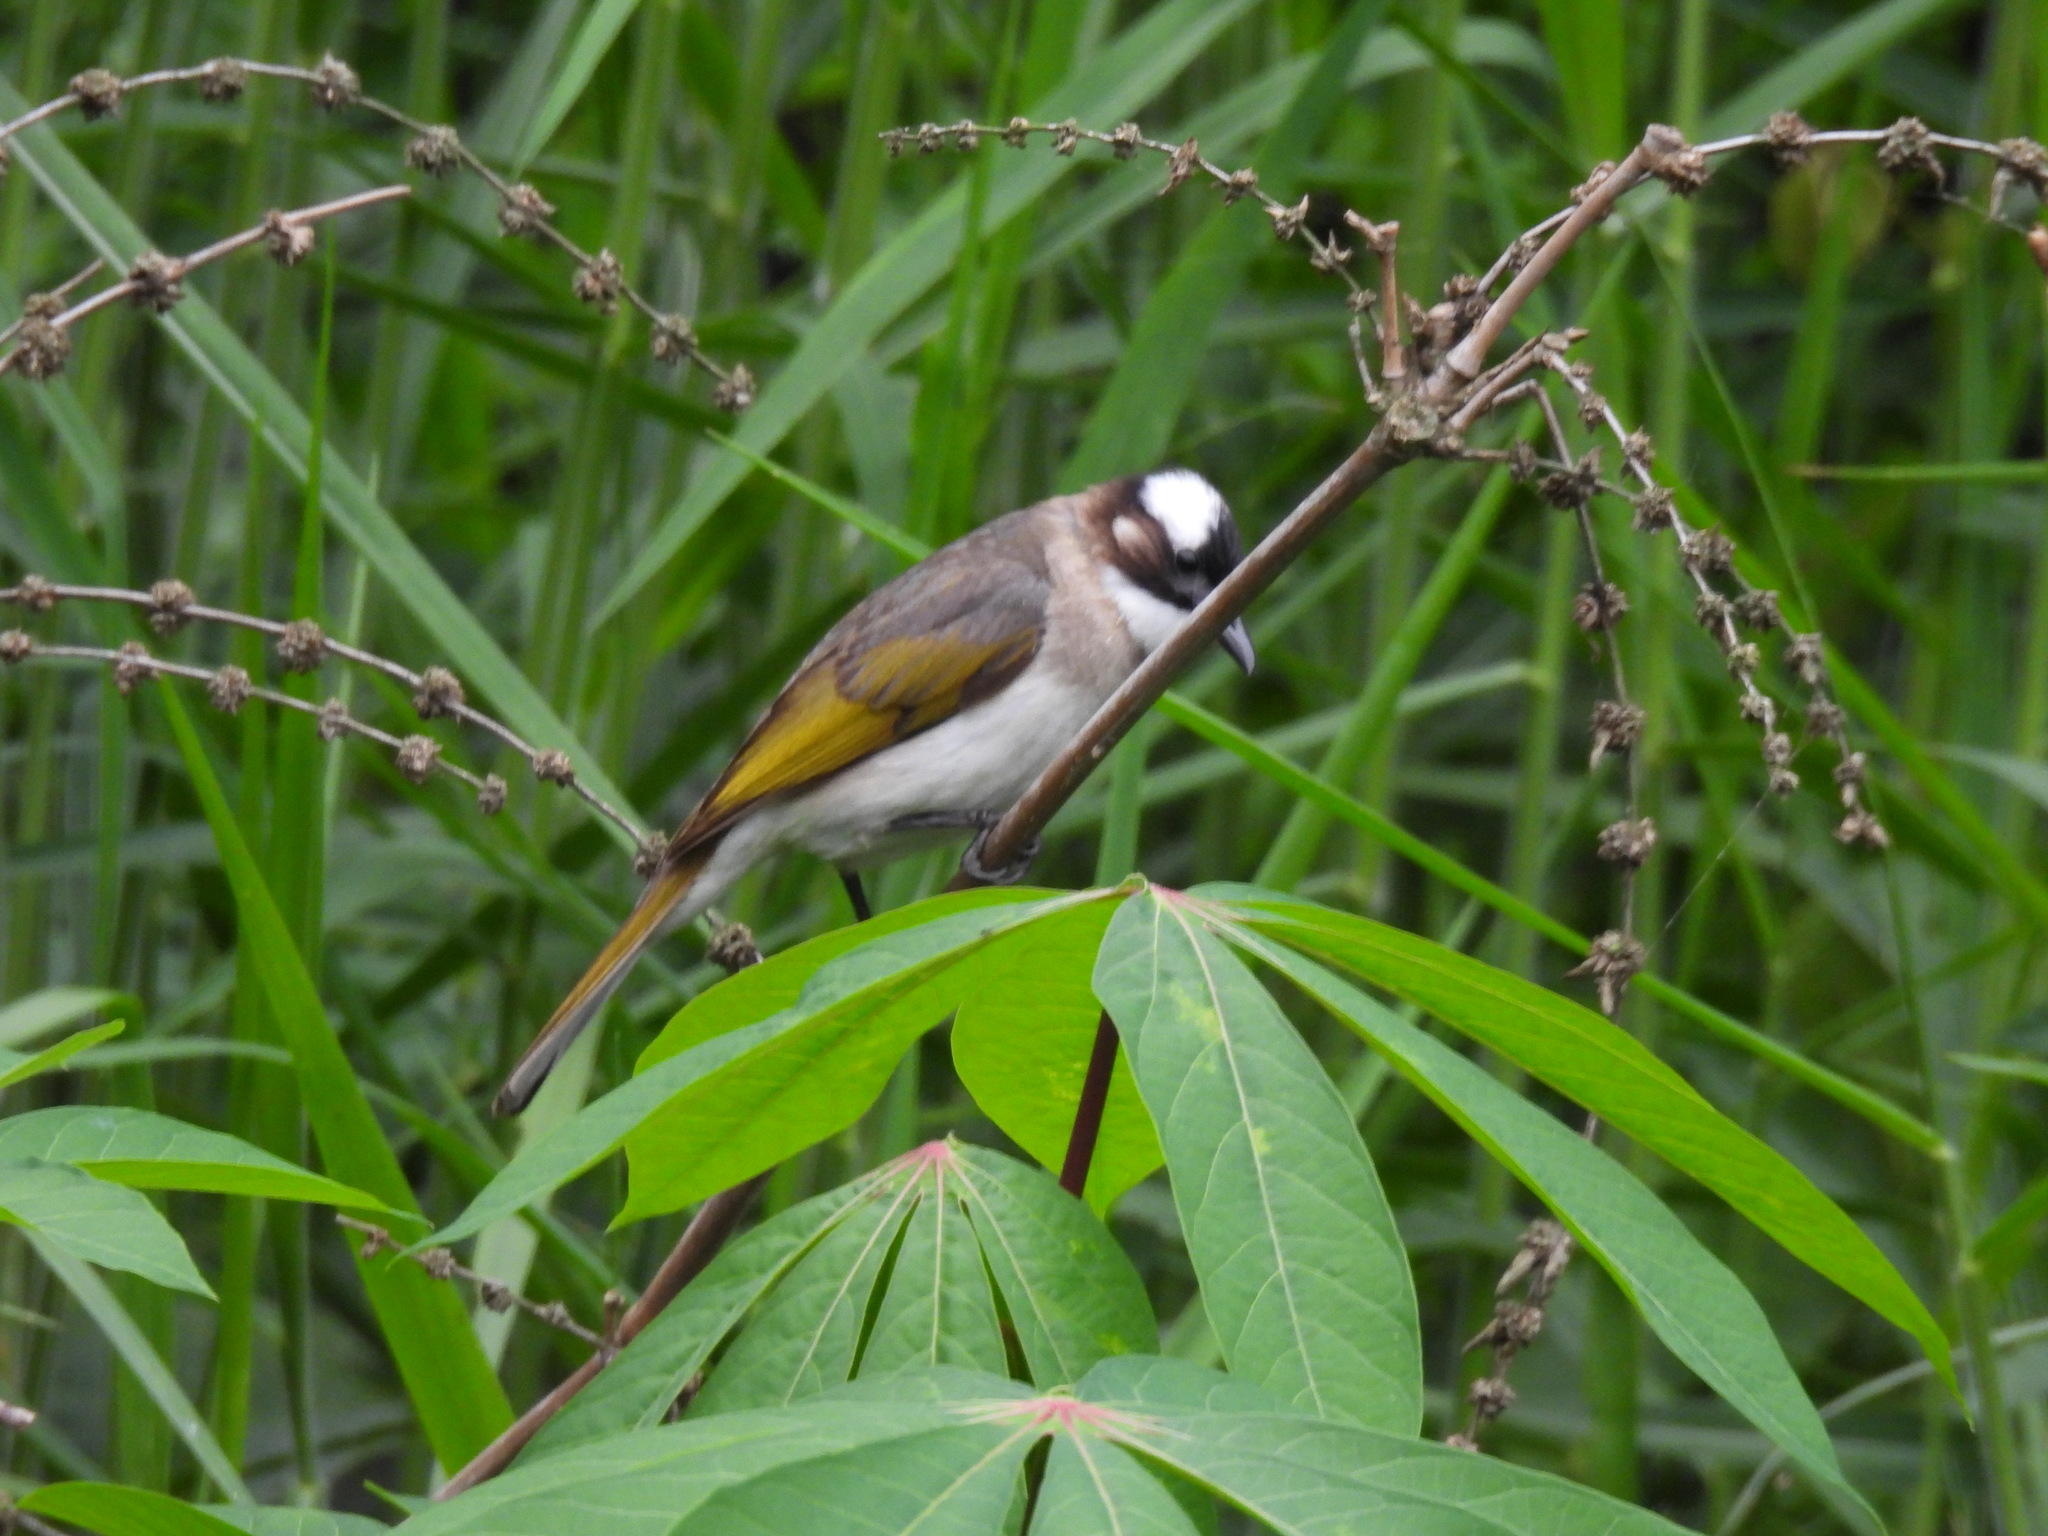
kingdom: Animalia
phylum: Chordata
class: Aves
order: Passeriformes
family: Pycnonotidae
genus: Pycnonotus
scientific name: Pycnonotus sinensis
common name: Light-vented bulbul
